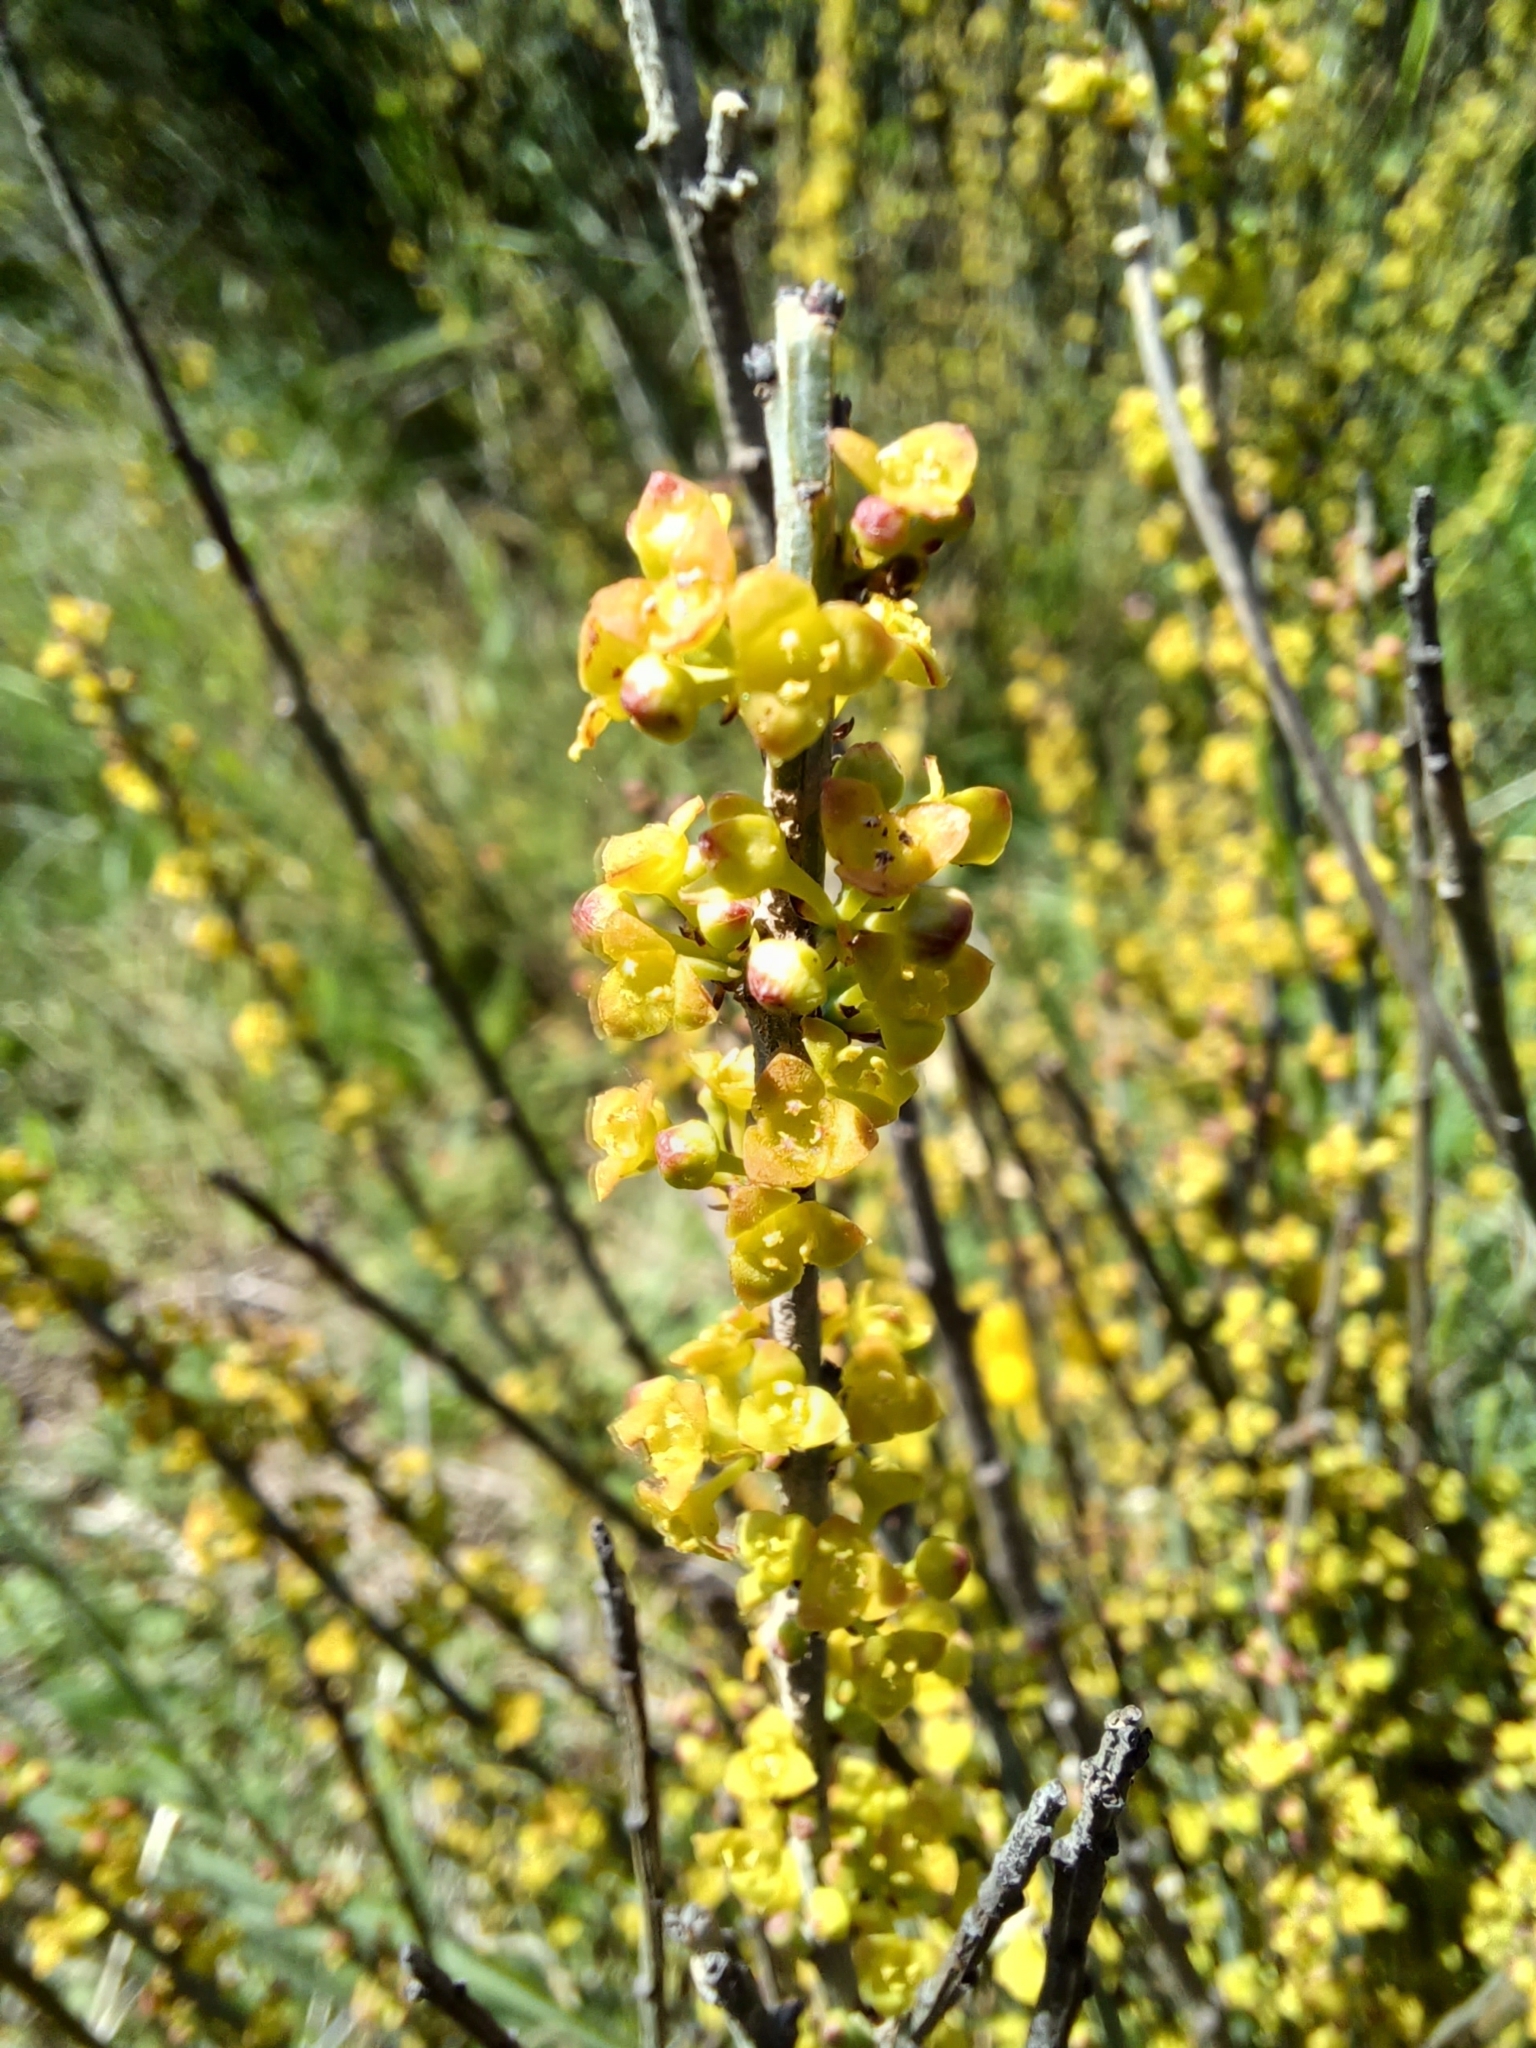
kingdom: Plantae
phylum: Tracheophyta
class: Magnoliopsida
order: Santalales
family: Santalaceae
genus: Osyris
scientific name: Osyris alba
